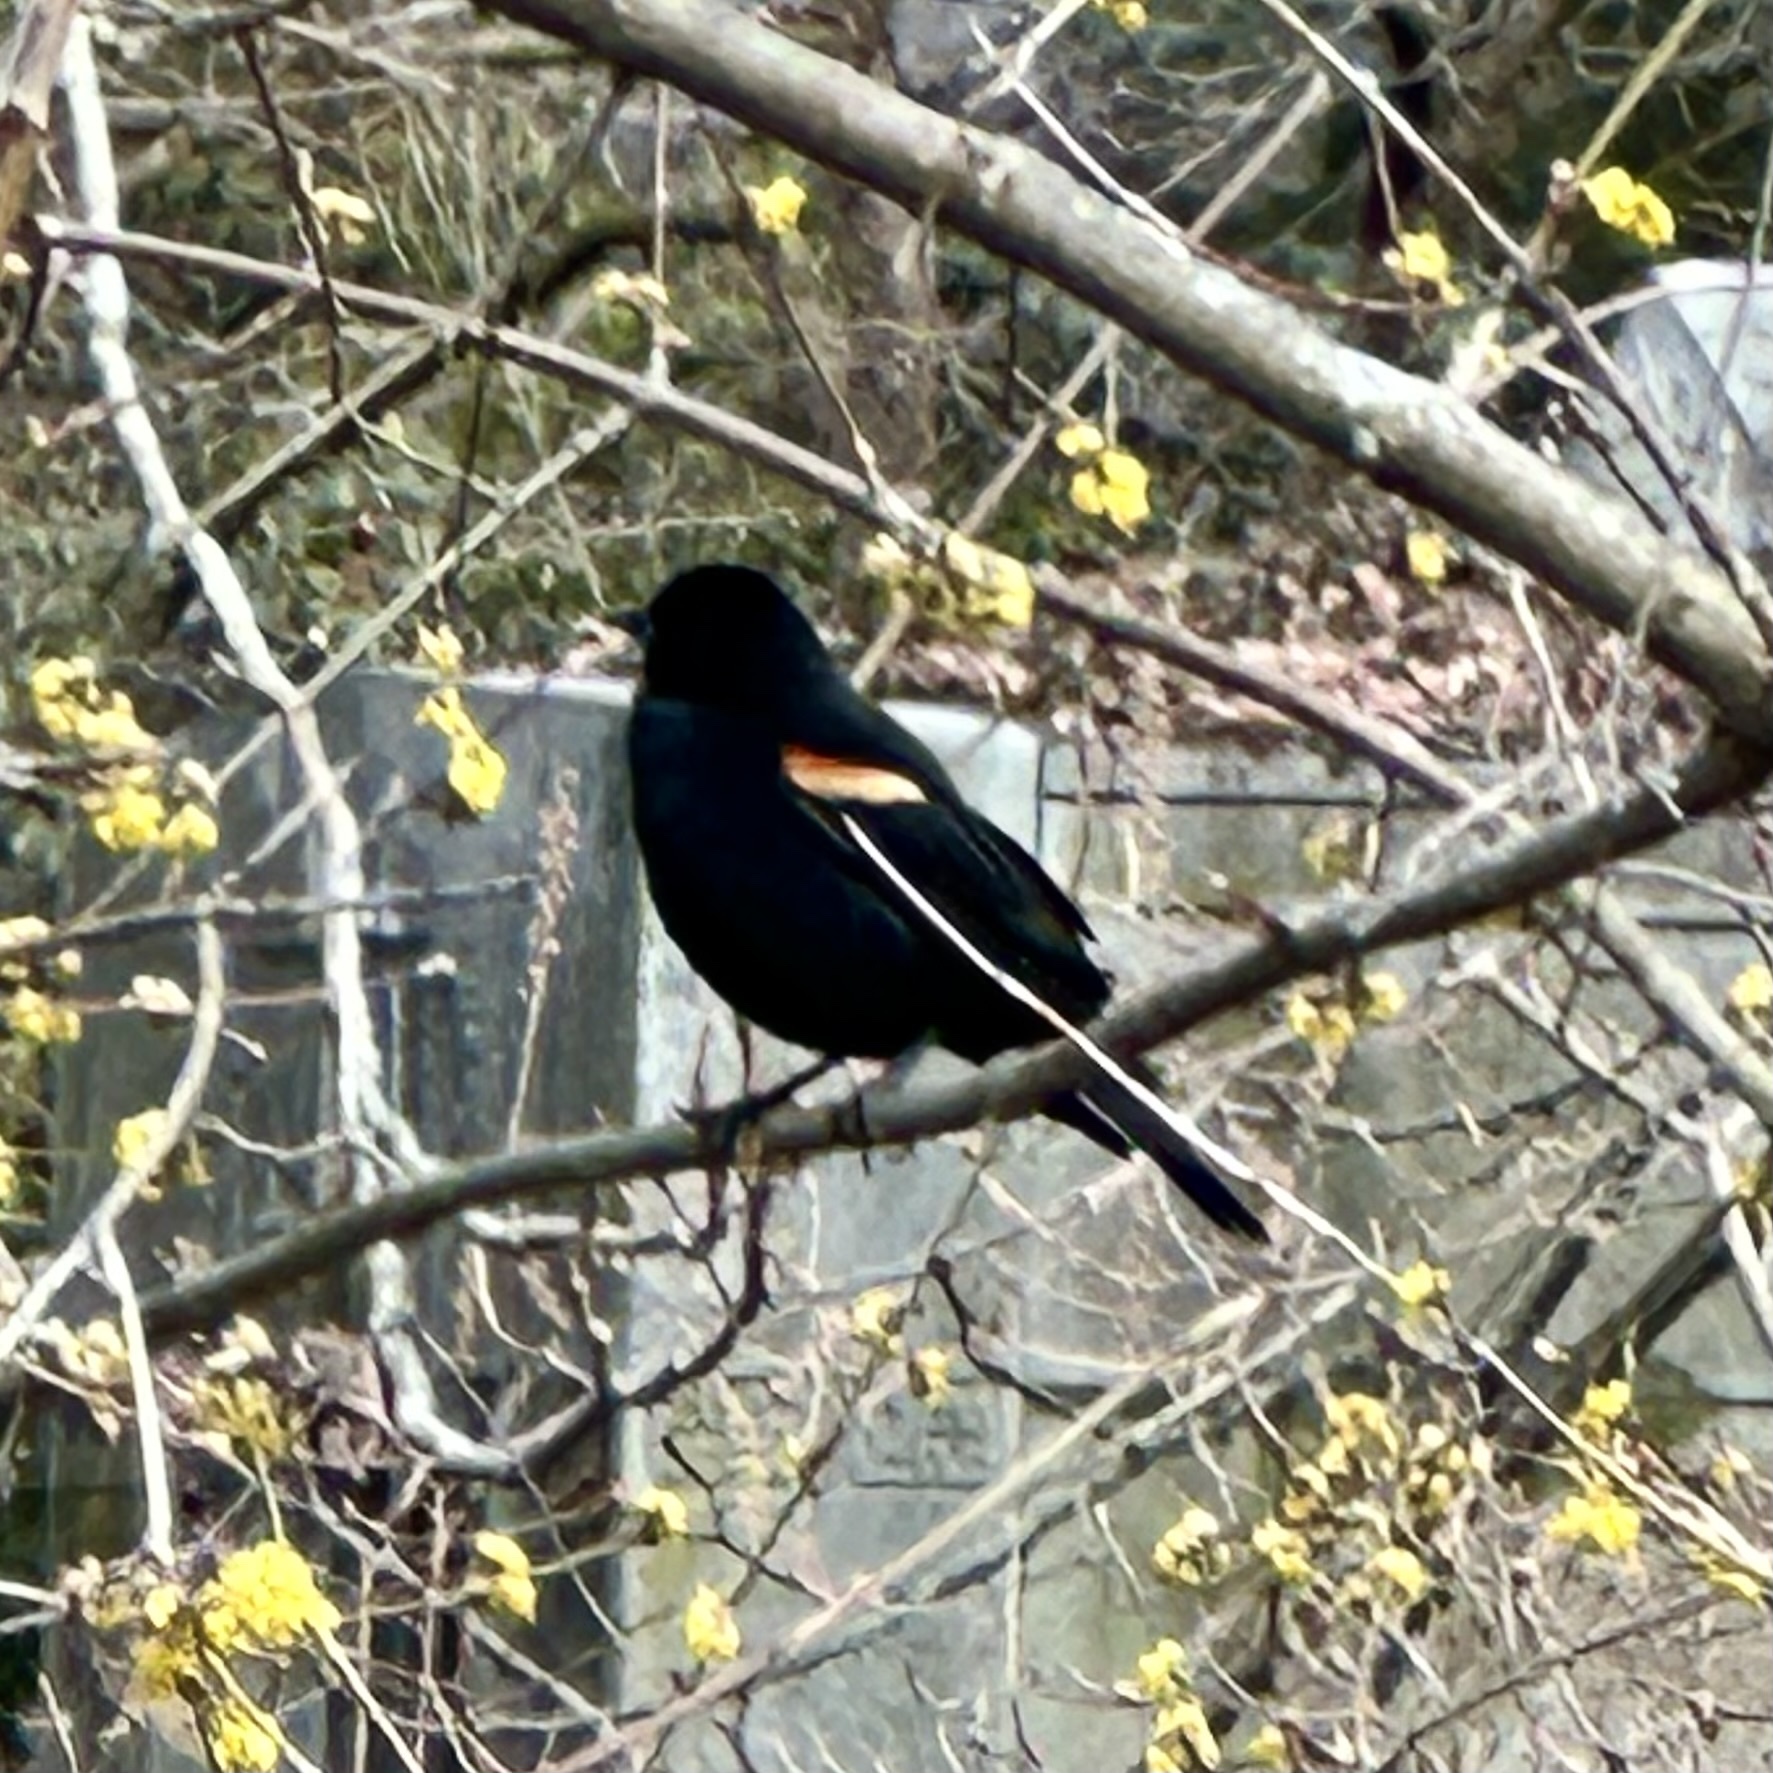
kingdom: Animalia
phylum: Chordata
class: Aves
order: Passeriformes
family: Icteridae
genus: Agelaius
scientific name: Agelaius phoeniceus
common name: Red-winged blackbird
